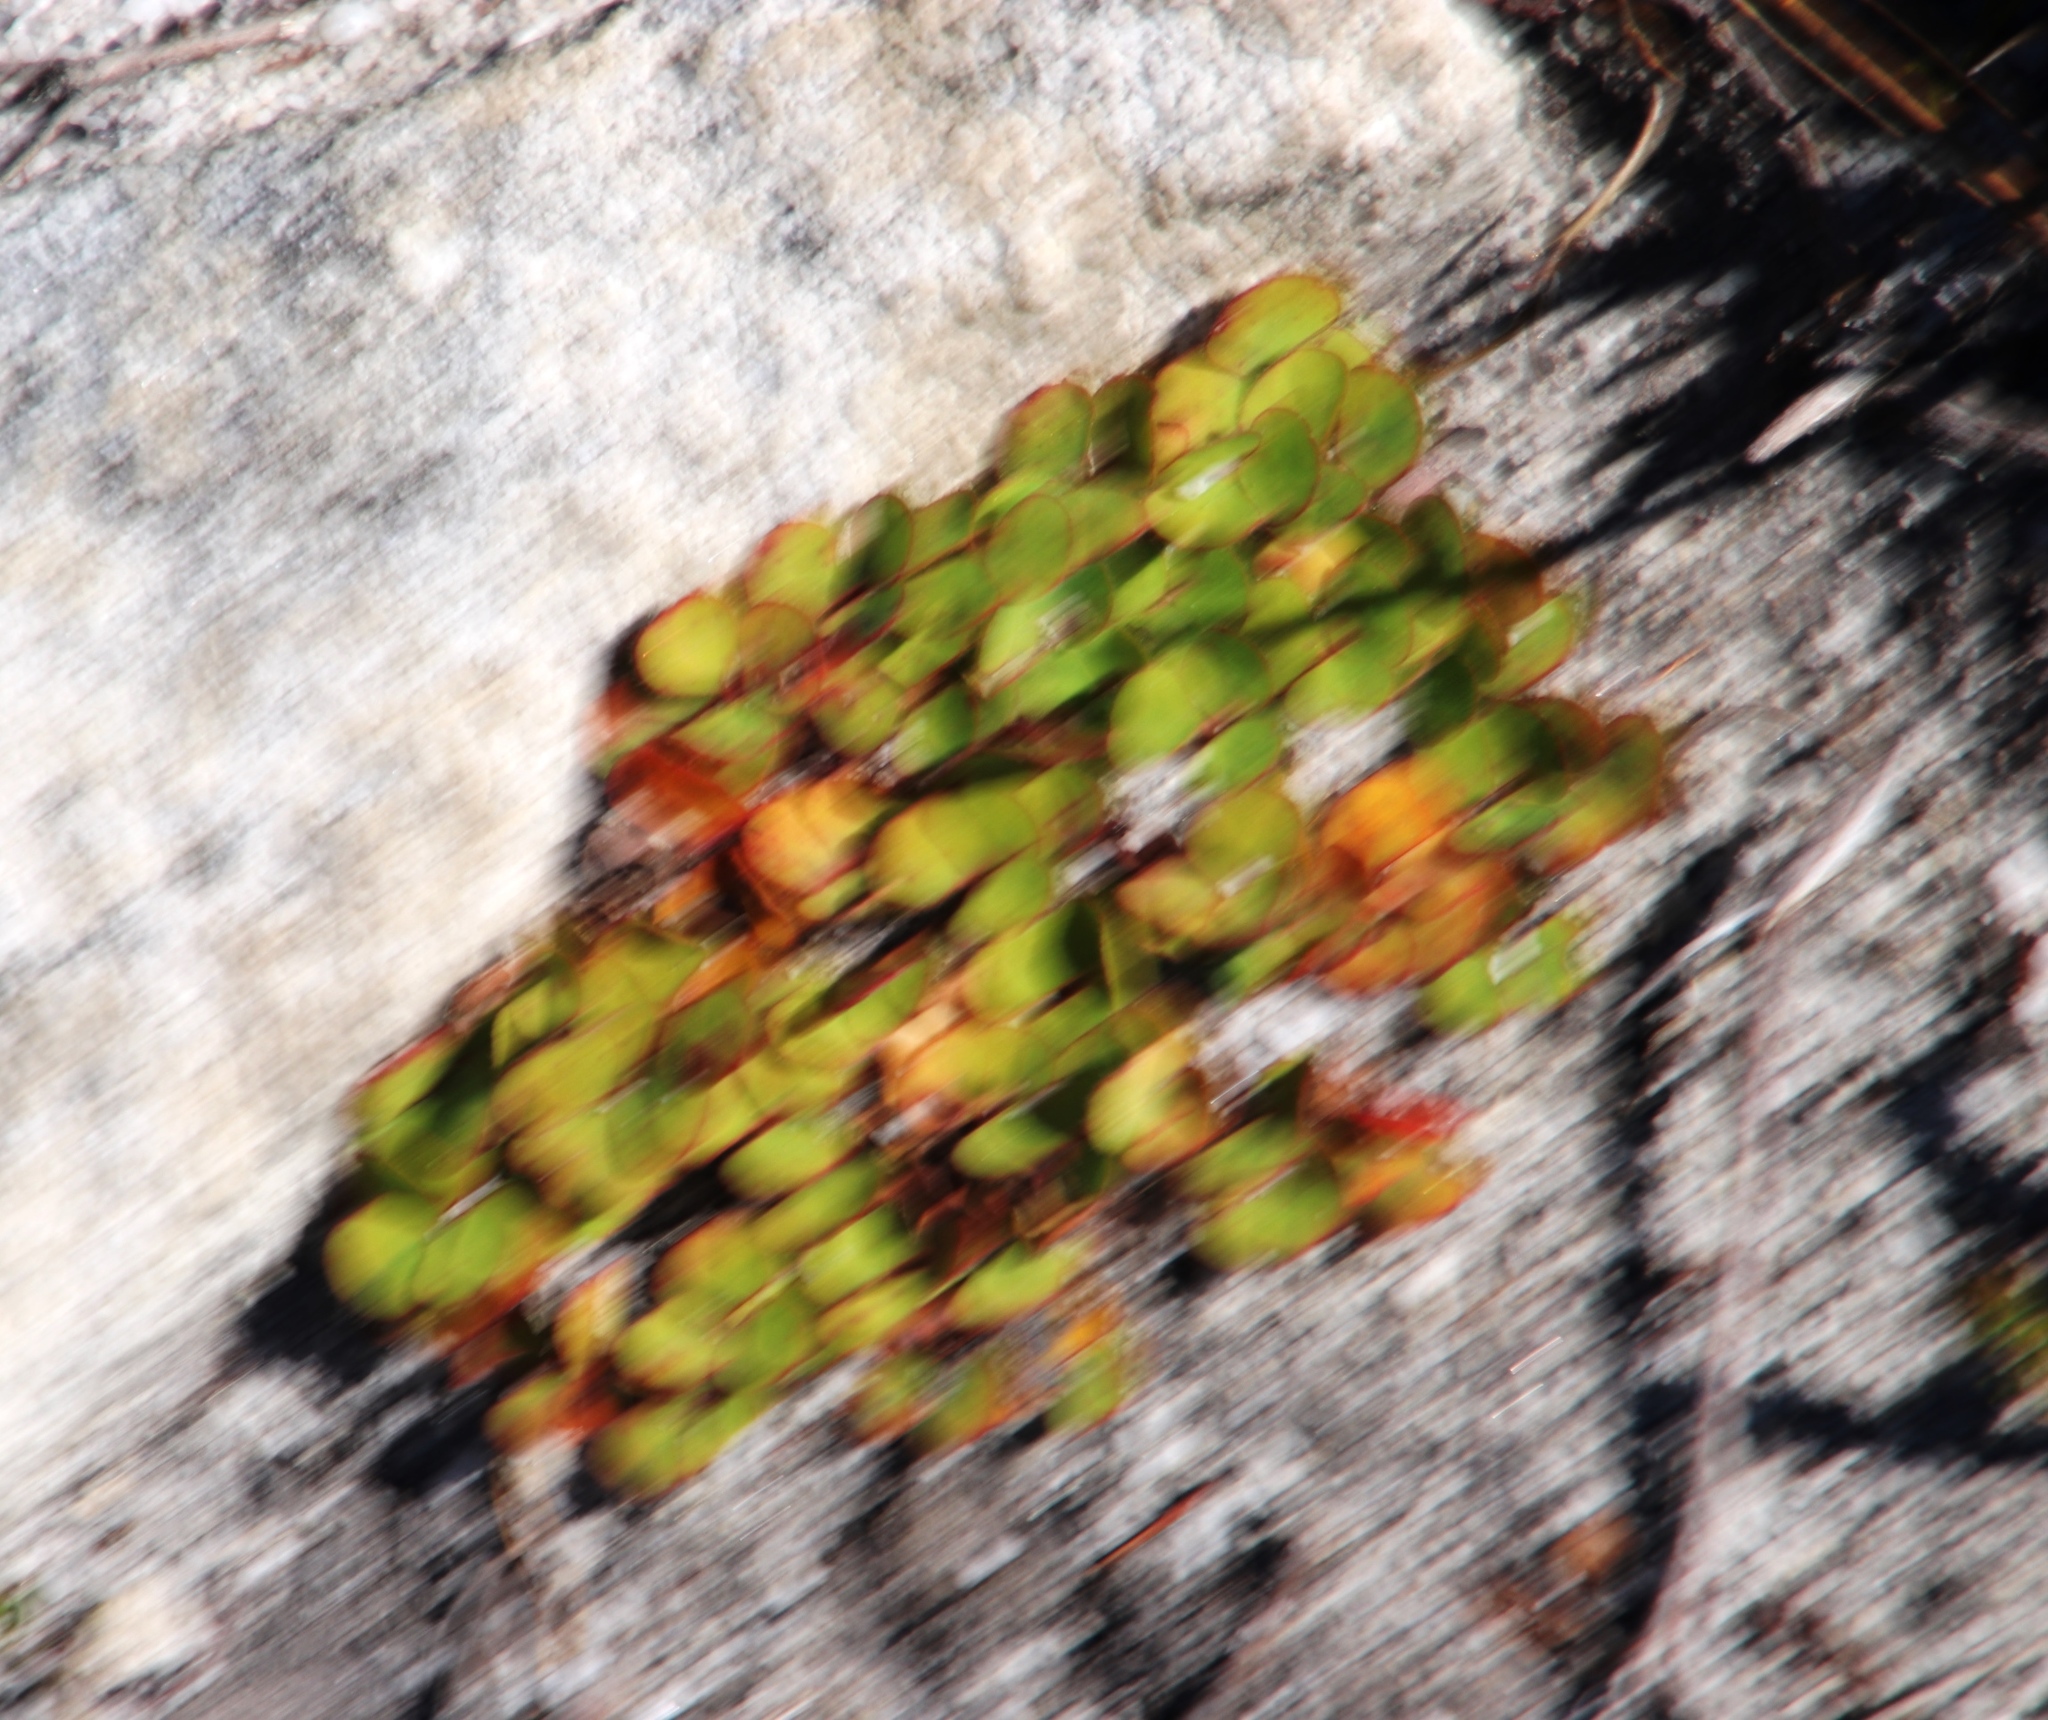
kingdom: Plantae
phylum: Tracheophyta
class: Magnoliopsida
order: Saxifragales
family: Crassulaceae
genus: Crassula
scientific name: Crassula capensis
